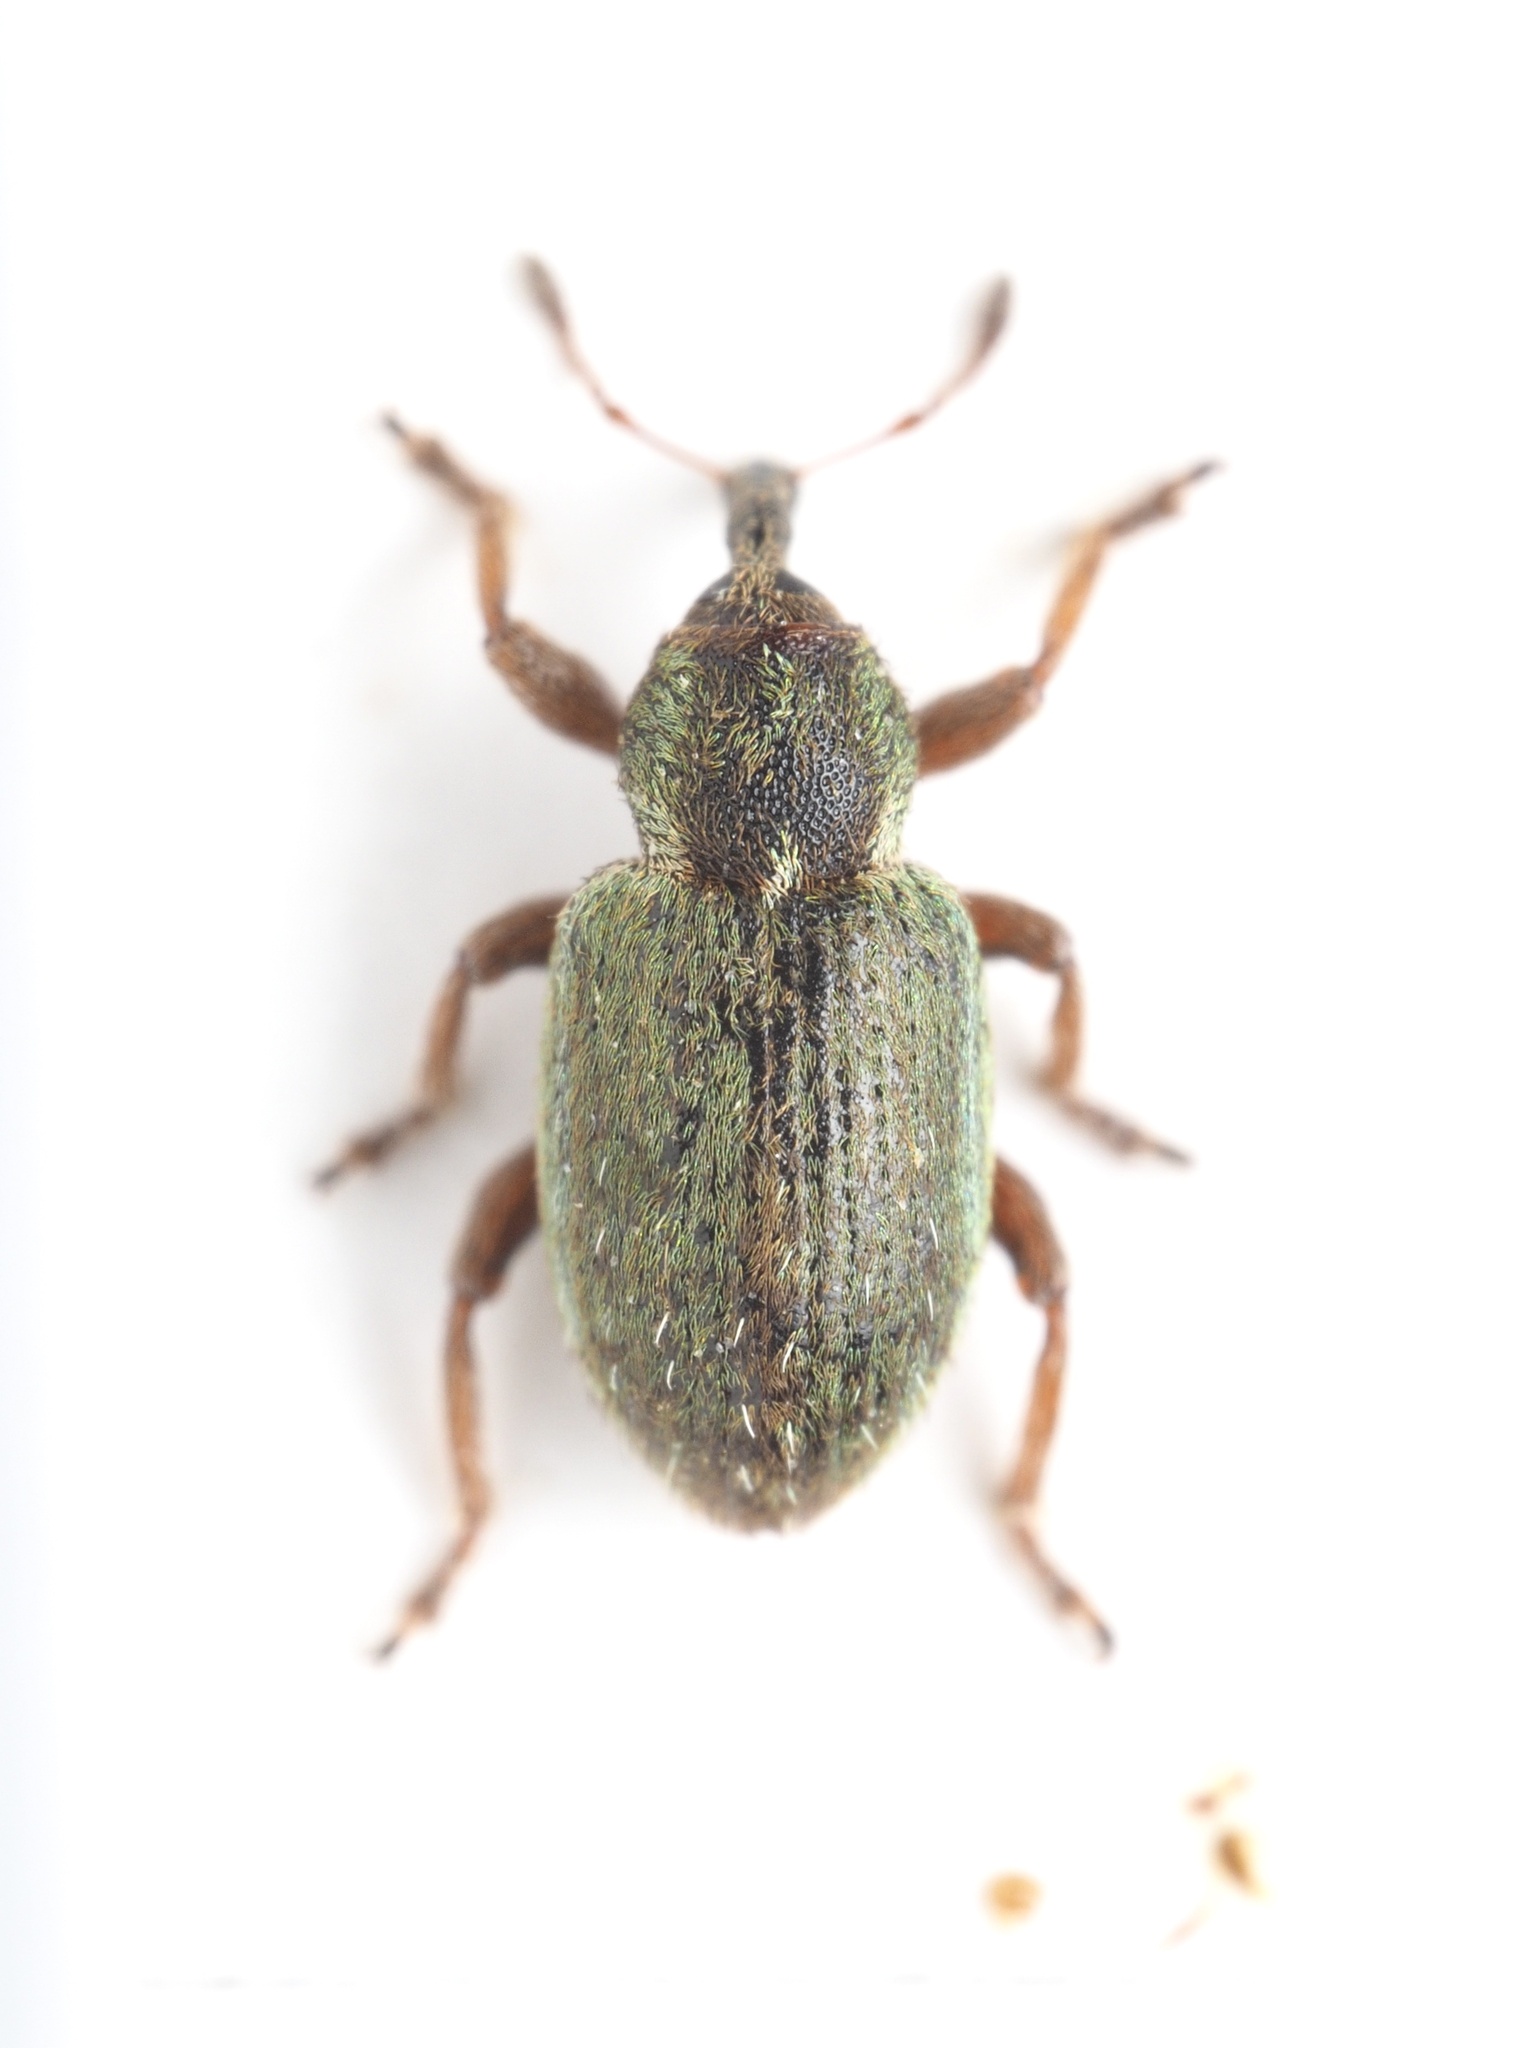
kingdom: Animalia
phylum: Arthropoda
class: Insecta
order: Coleoptera
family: Curculionidae
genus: Hypera
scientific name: Hypera nigrirostris
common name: Black-beaked green weevil
